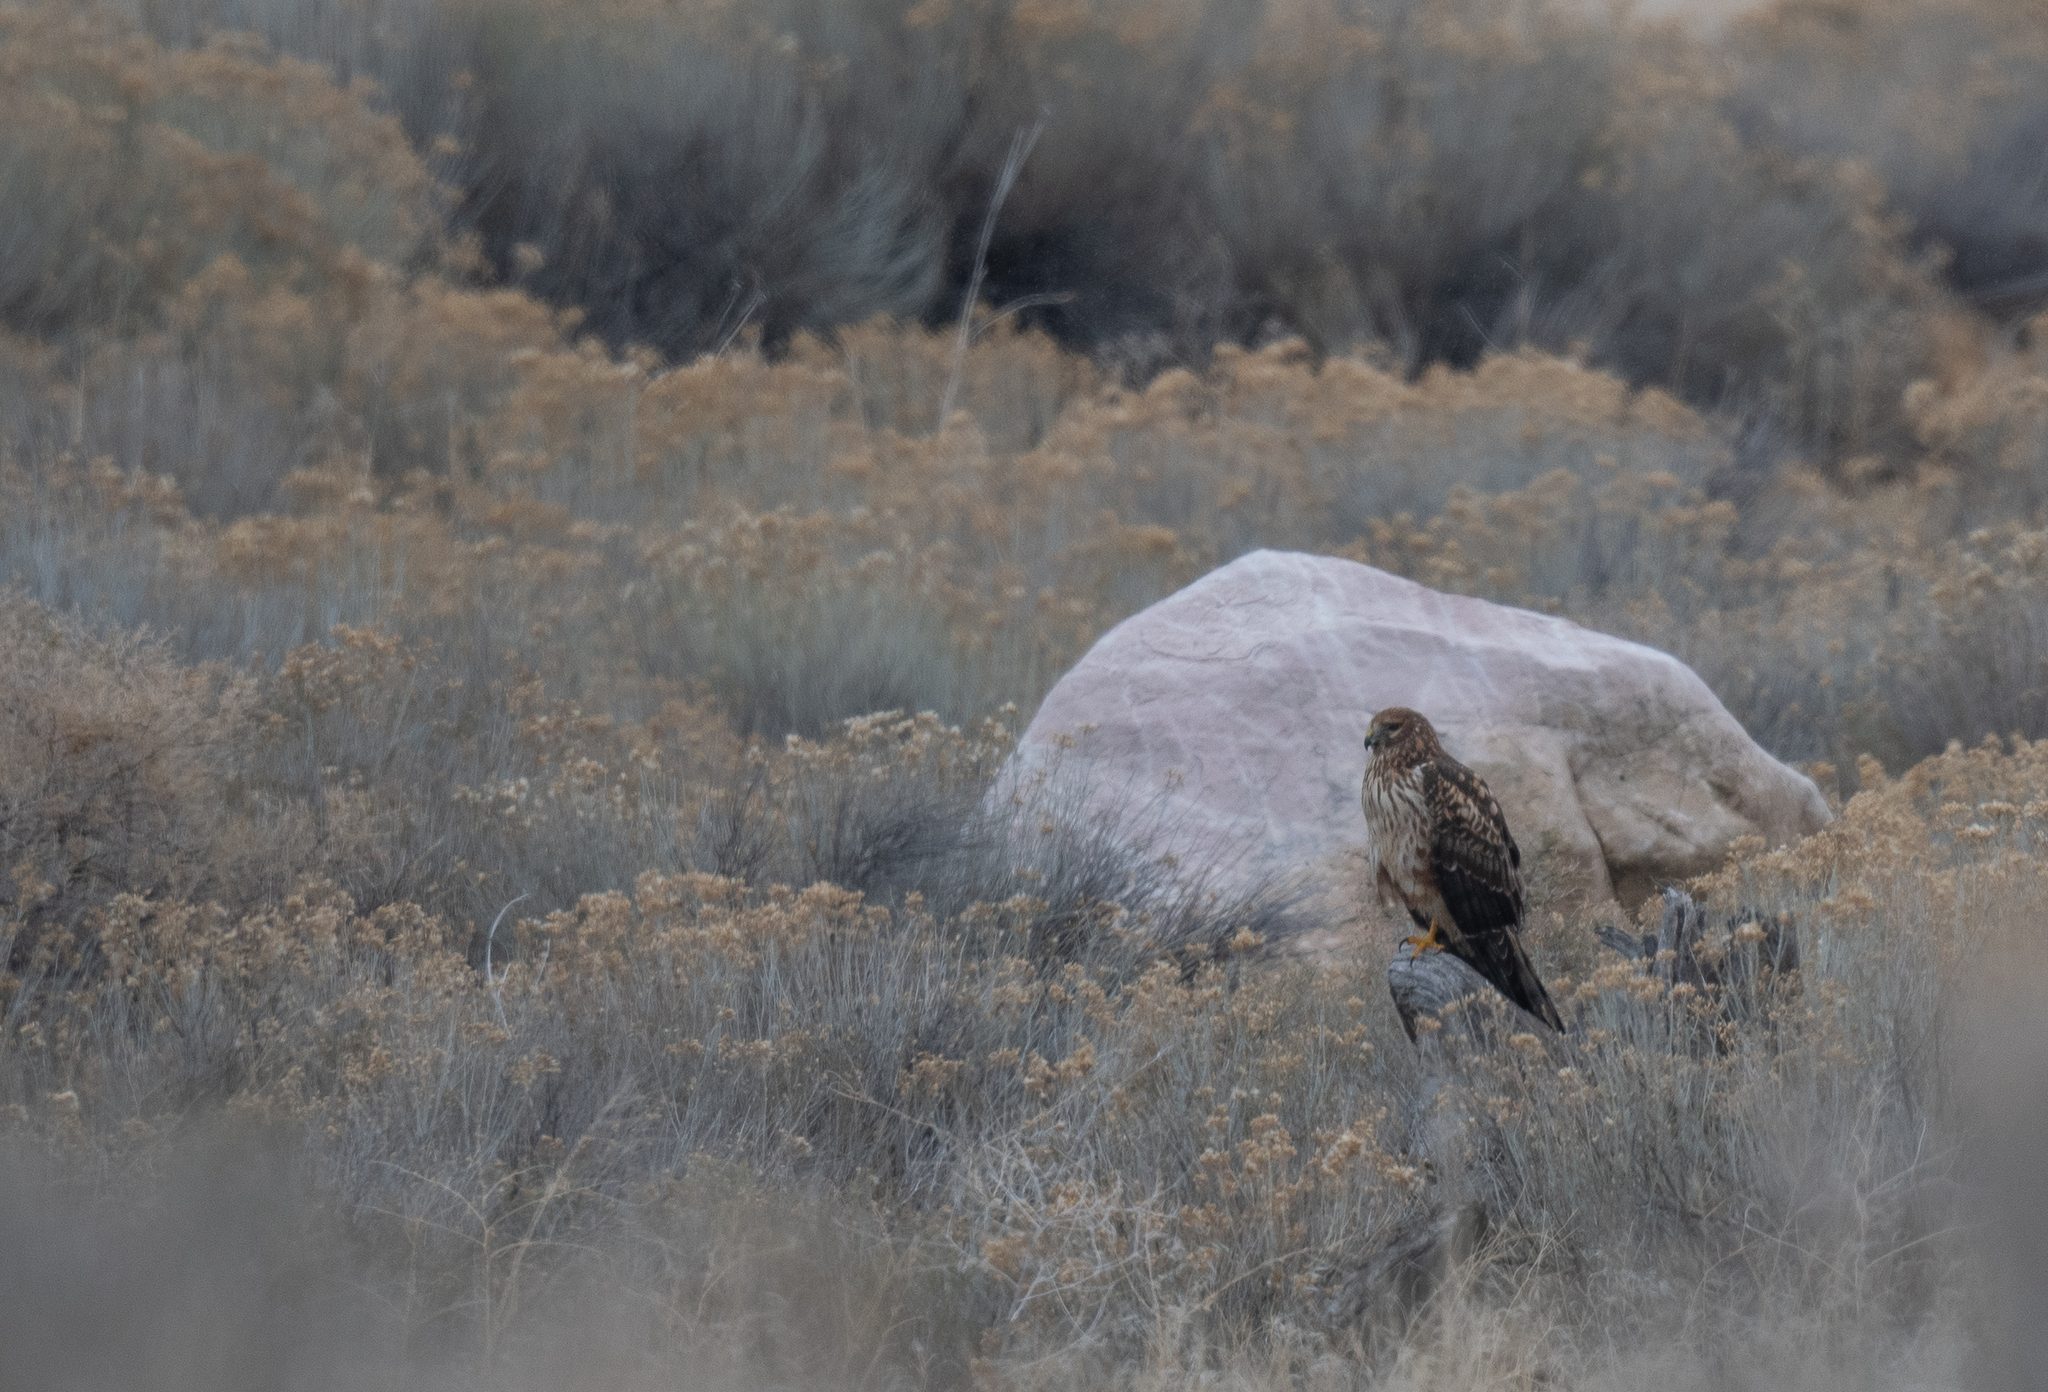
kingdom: Animalia
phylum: Chordata
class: Aves
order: Accipitriformes
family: Accipitridae
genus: Circus
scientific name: Circus cyaneus
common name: Hen harrier
